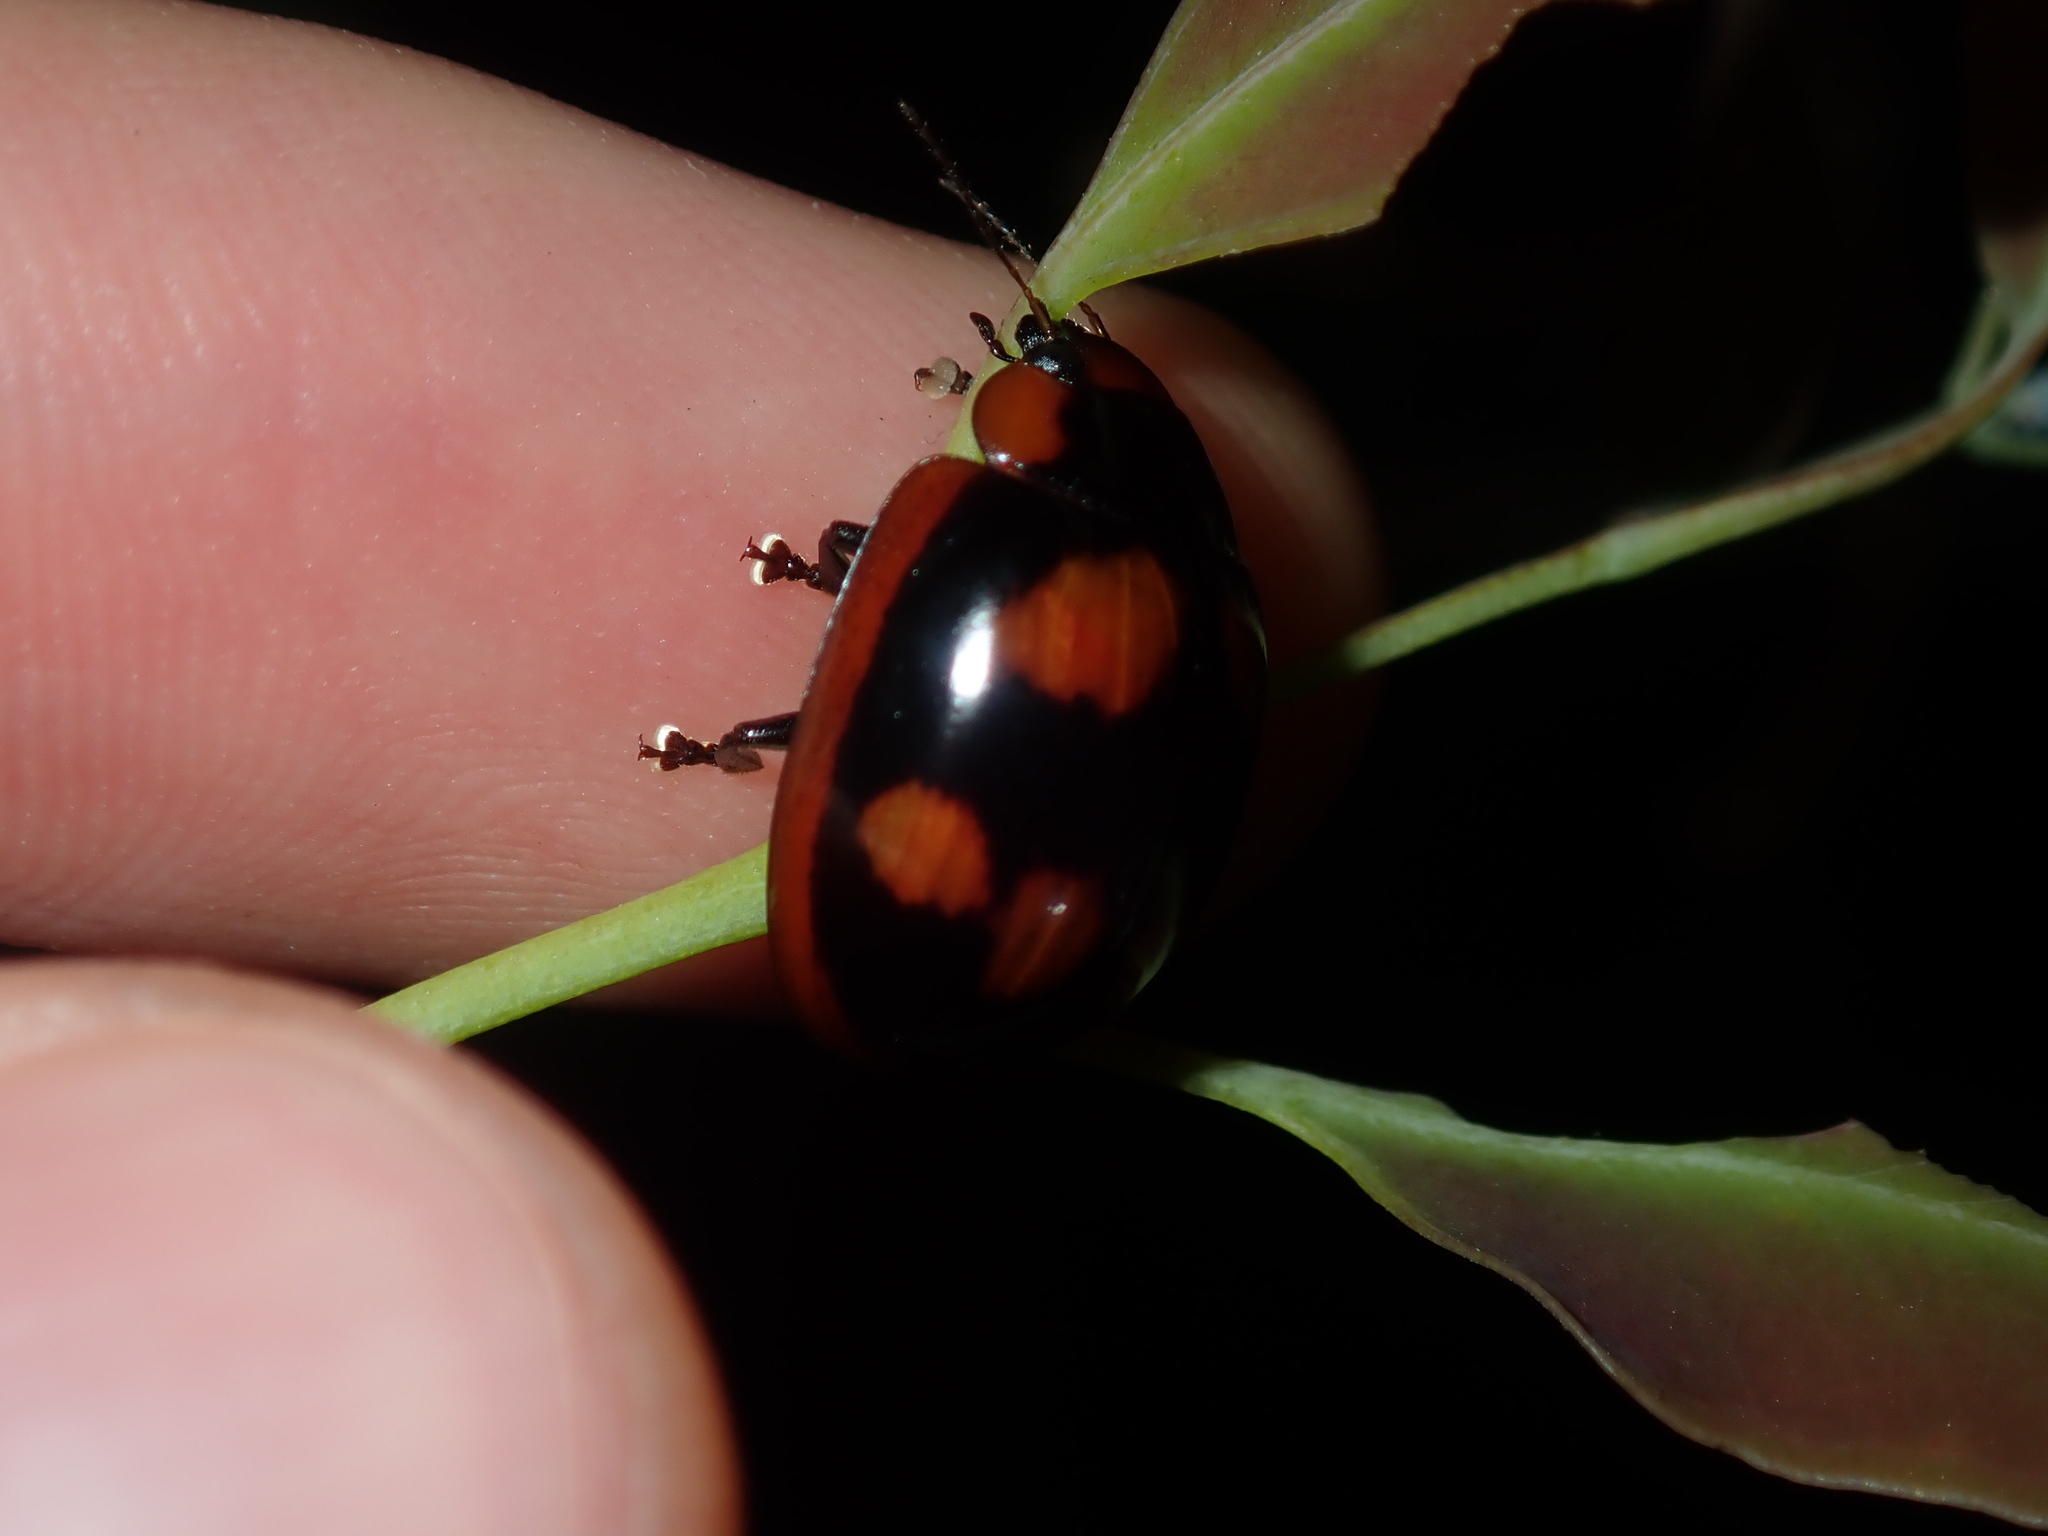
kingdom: Animalia
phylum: Arthropoda
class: Insecta
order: Coleoptera
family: Chrysomelidae
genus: Paropsisterna
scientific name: Paropsisterna beata
